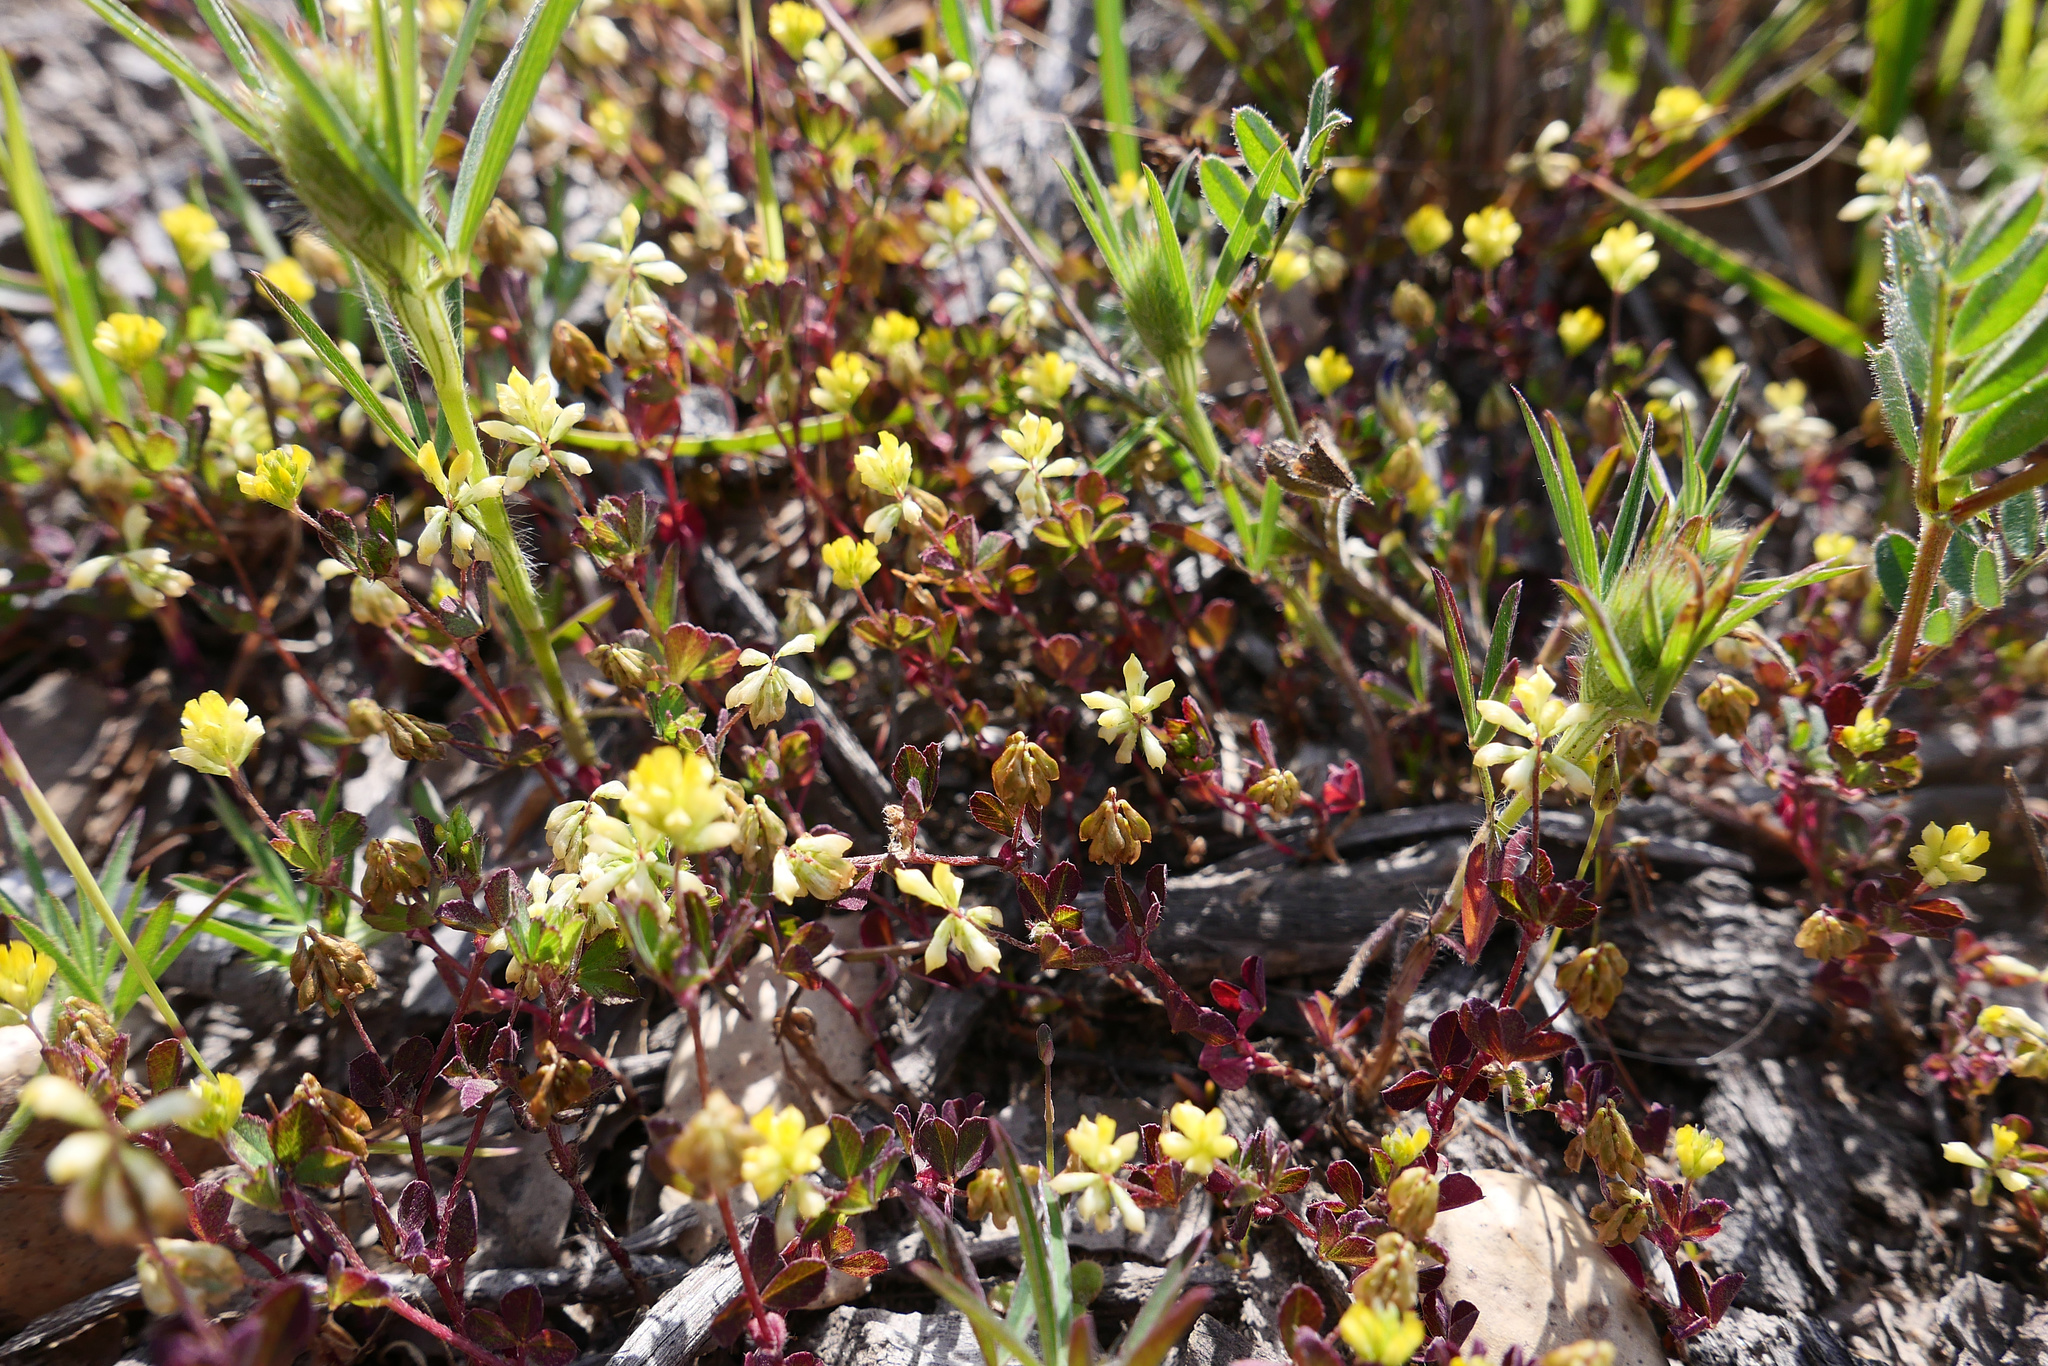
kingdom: Plantae
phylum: Tracheophyta
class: Magnoliopsida
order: Fabales
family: Fabaceae
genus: Trifolium
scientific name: Trifolium dubium
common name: Suckling clover
